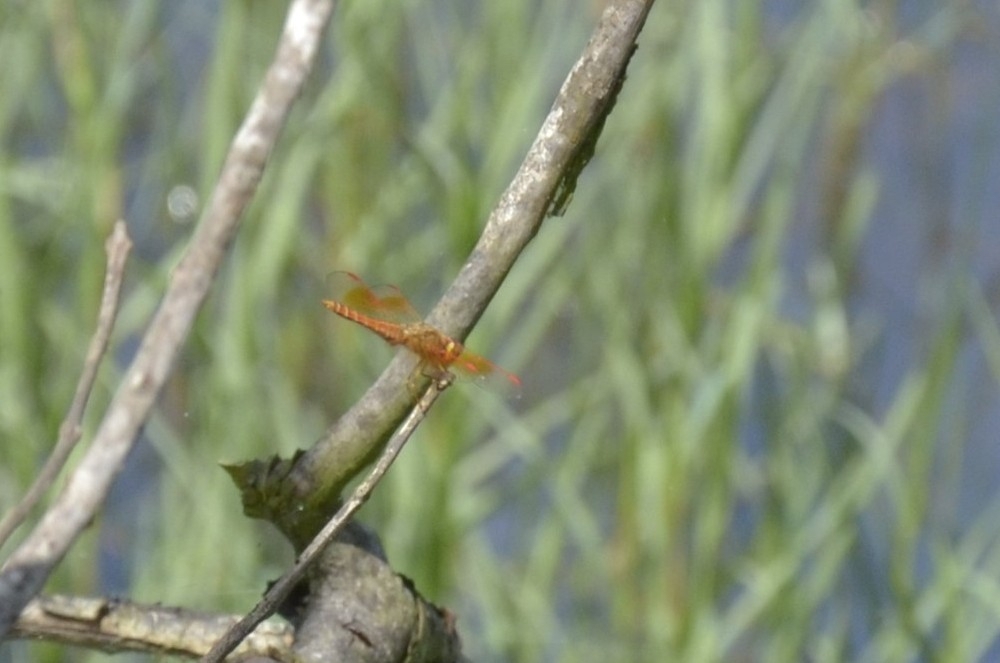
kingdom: Animalia
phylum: Arthropoda
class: Insecta
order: Odonata
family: Libellulidae
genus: Brachythemis
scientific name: Brachythemis contaminata
